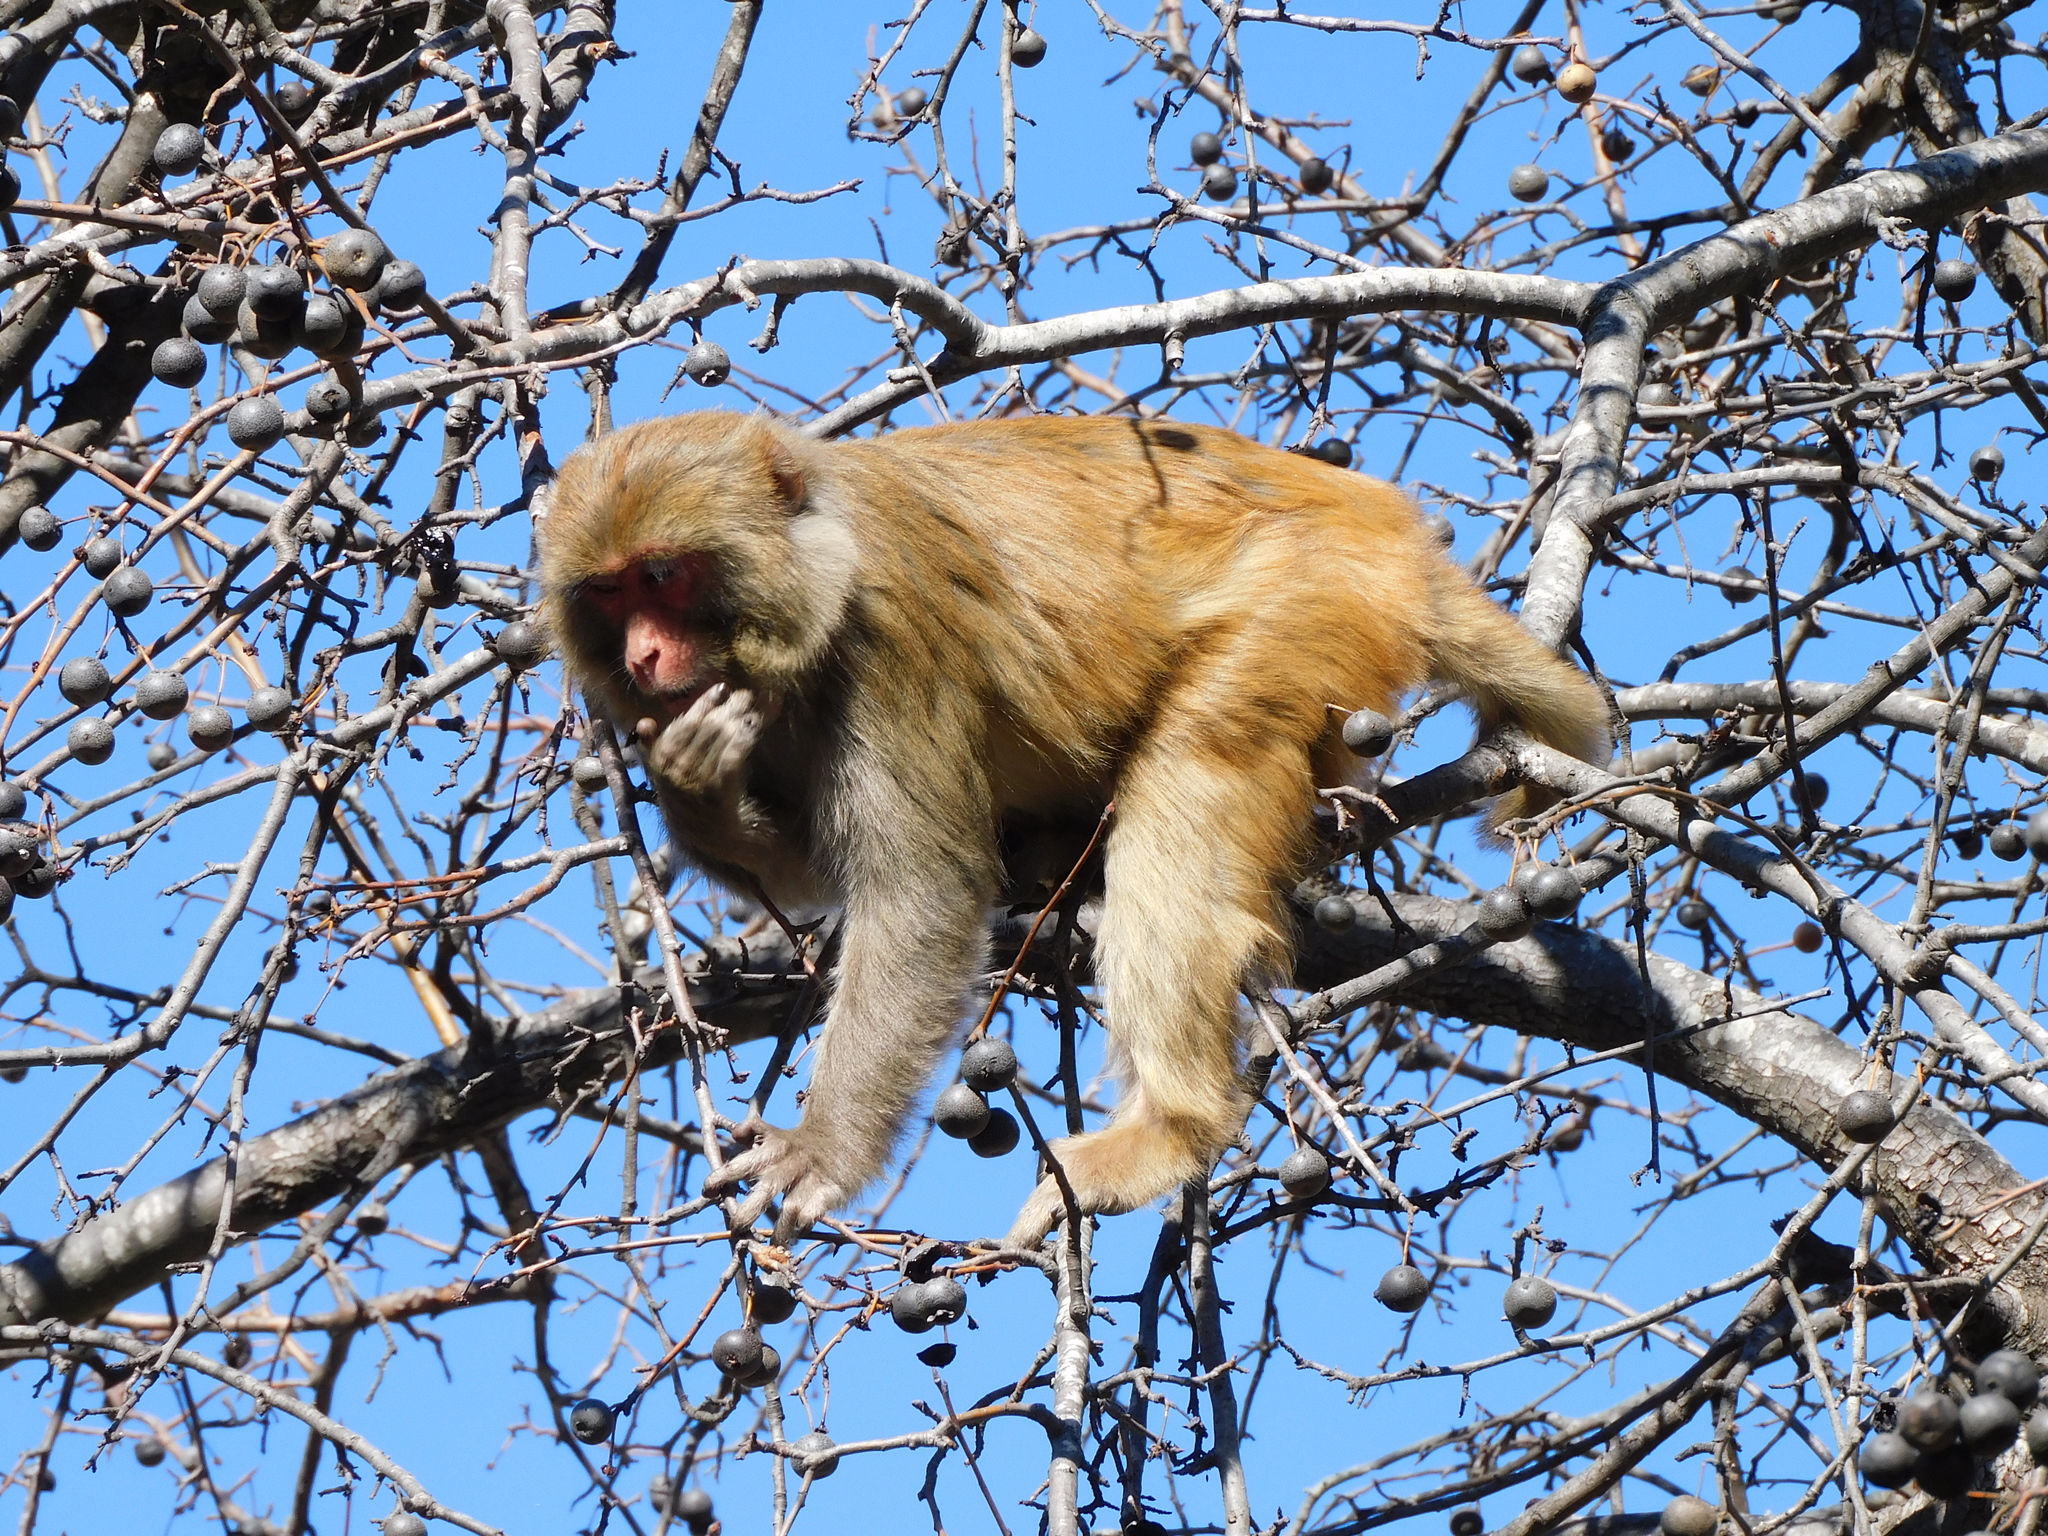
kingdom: Animalia
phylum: Chordata
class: Mammalia
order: Primates
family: Cercopithecidae
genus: Macaca
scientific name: Macaca mulatta
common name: Rhesus monkey
